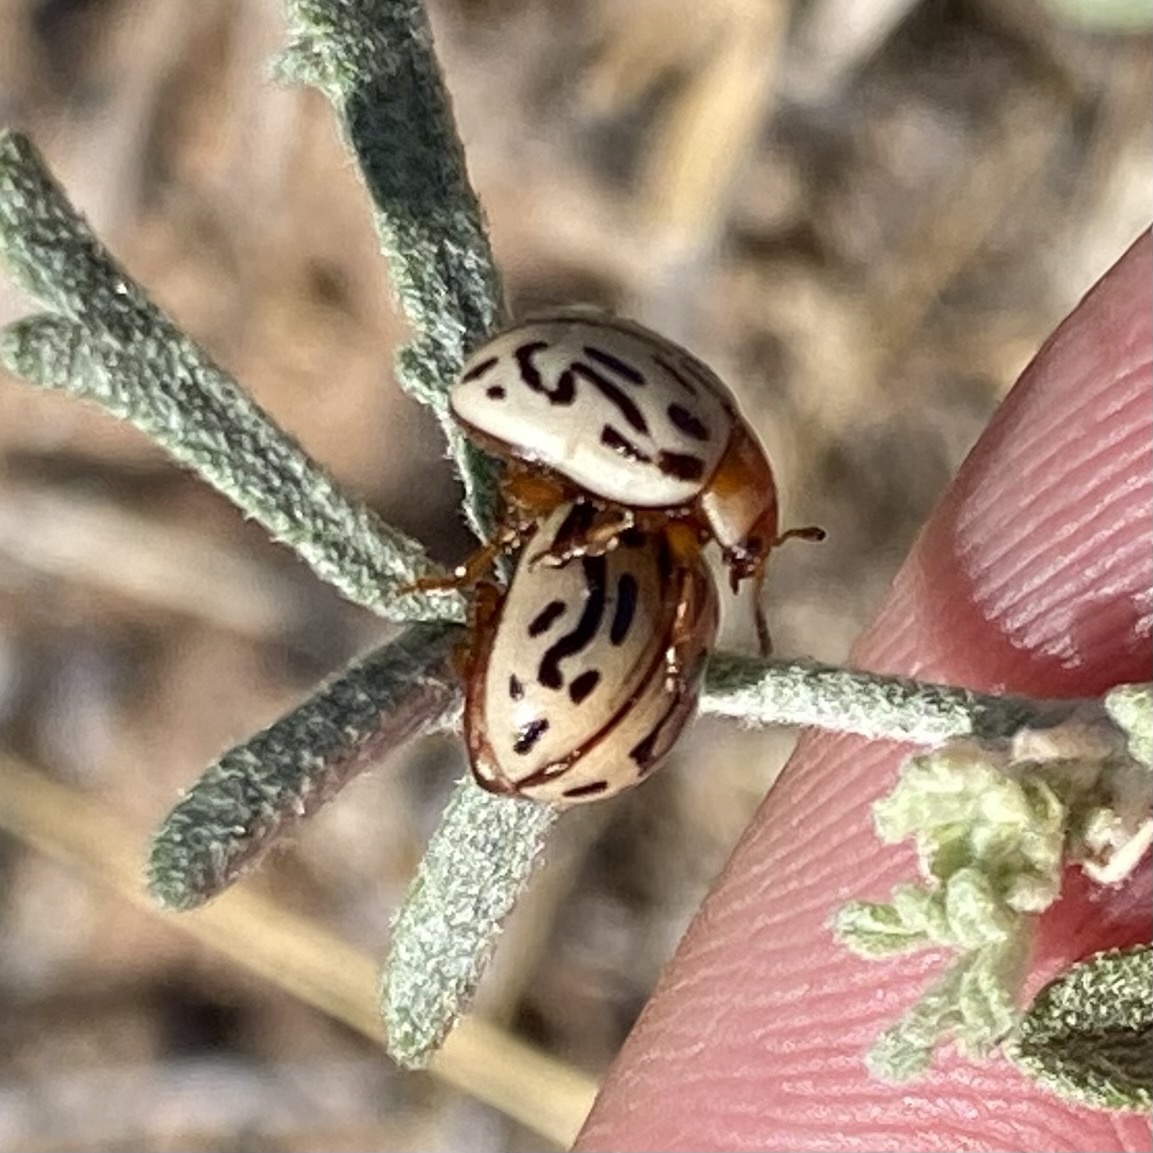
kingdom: Animalia
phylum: Arthropoda
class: Insecta
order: Coleoptera
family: Chrysomelidae
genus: Calligrapha
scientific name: Calligrapha
